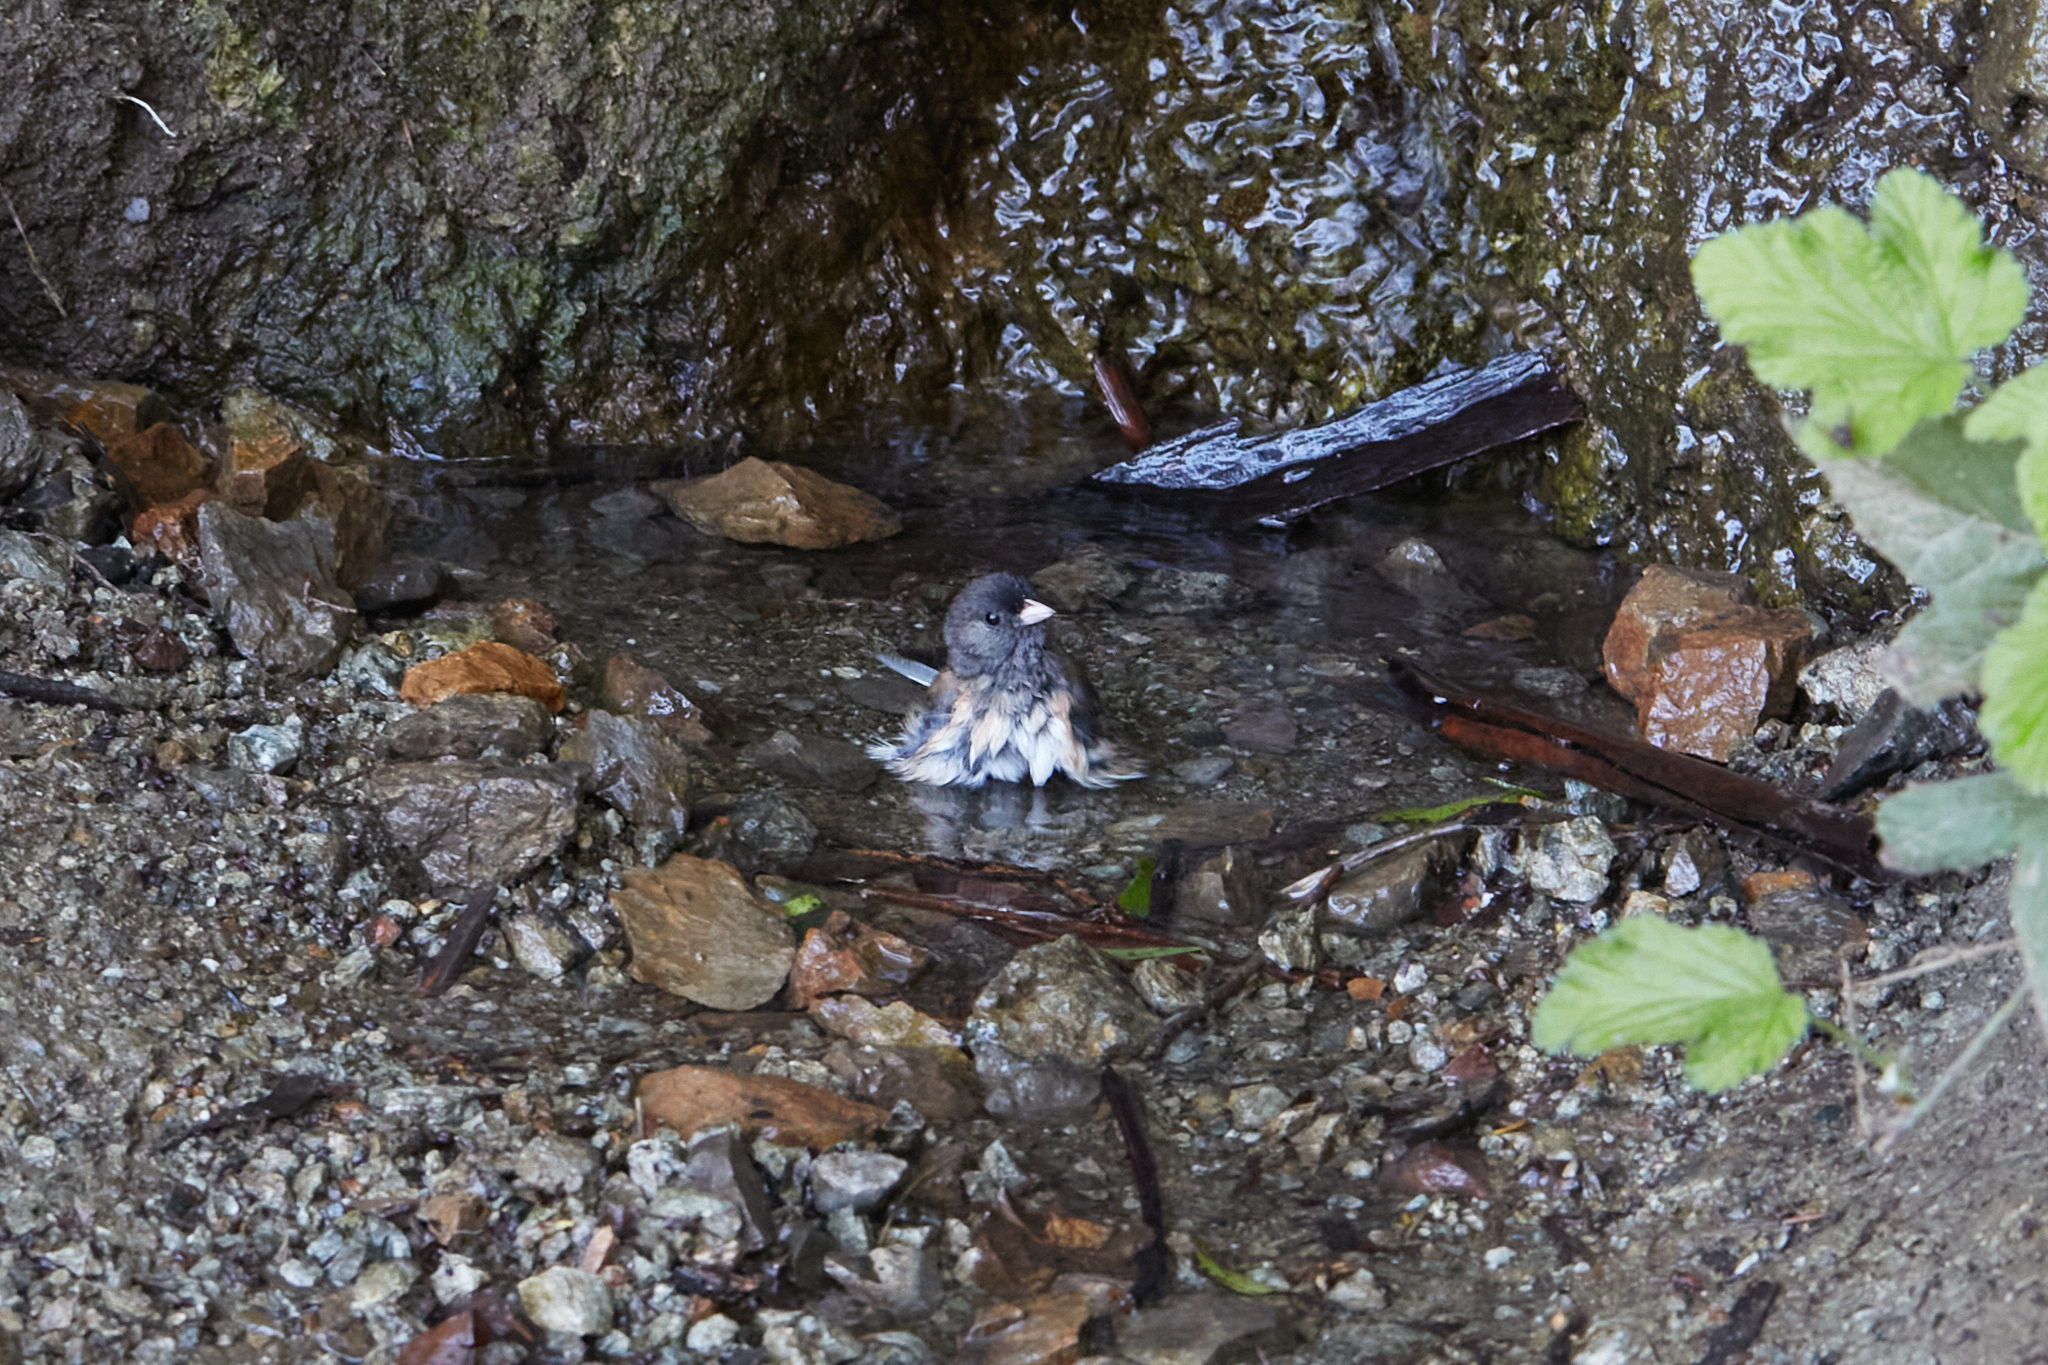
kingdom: Animalia
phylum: Chordata
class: Aves
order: Passeriformes
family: Passerellidae
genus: Junco
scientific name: Junco hyemalis
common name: Dark-eyed junco
